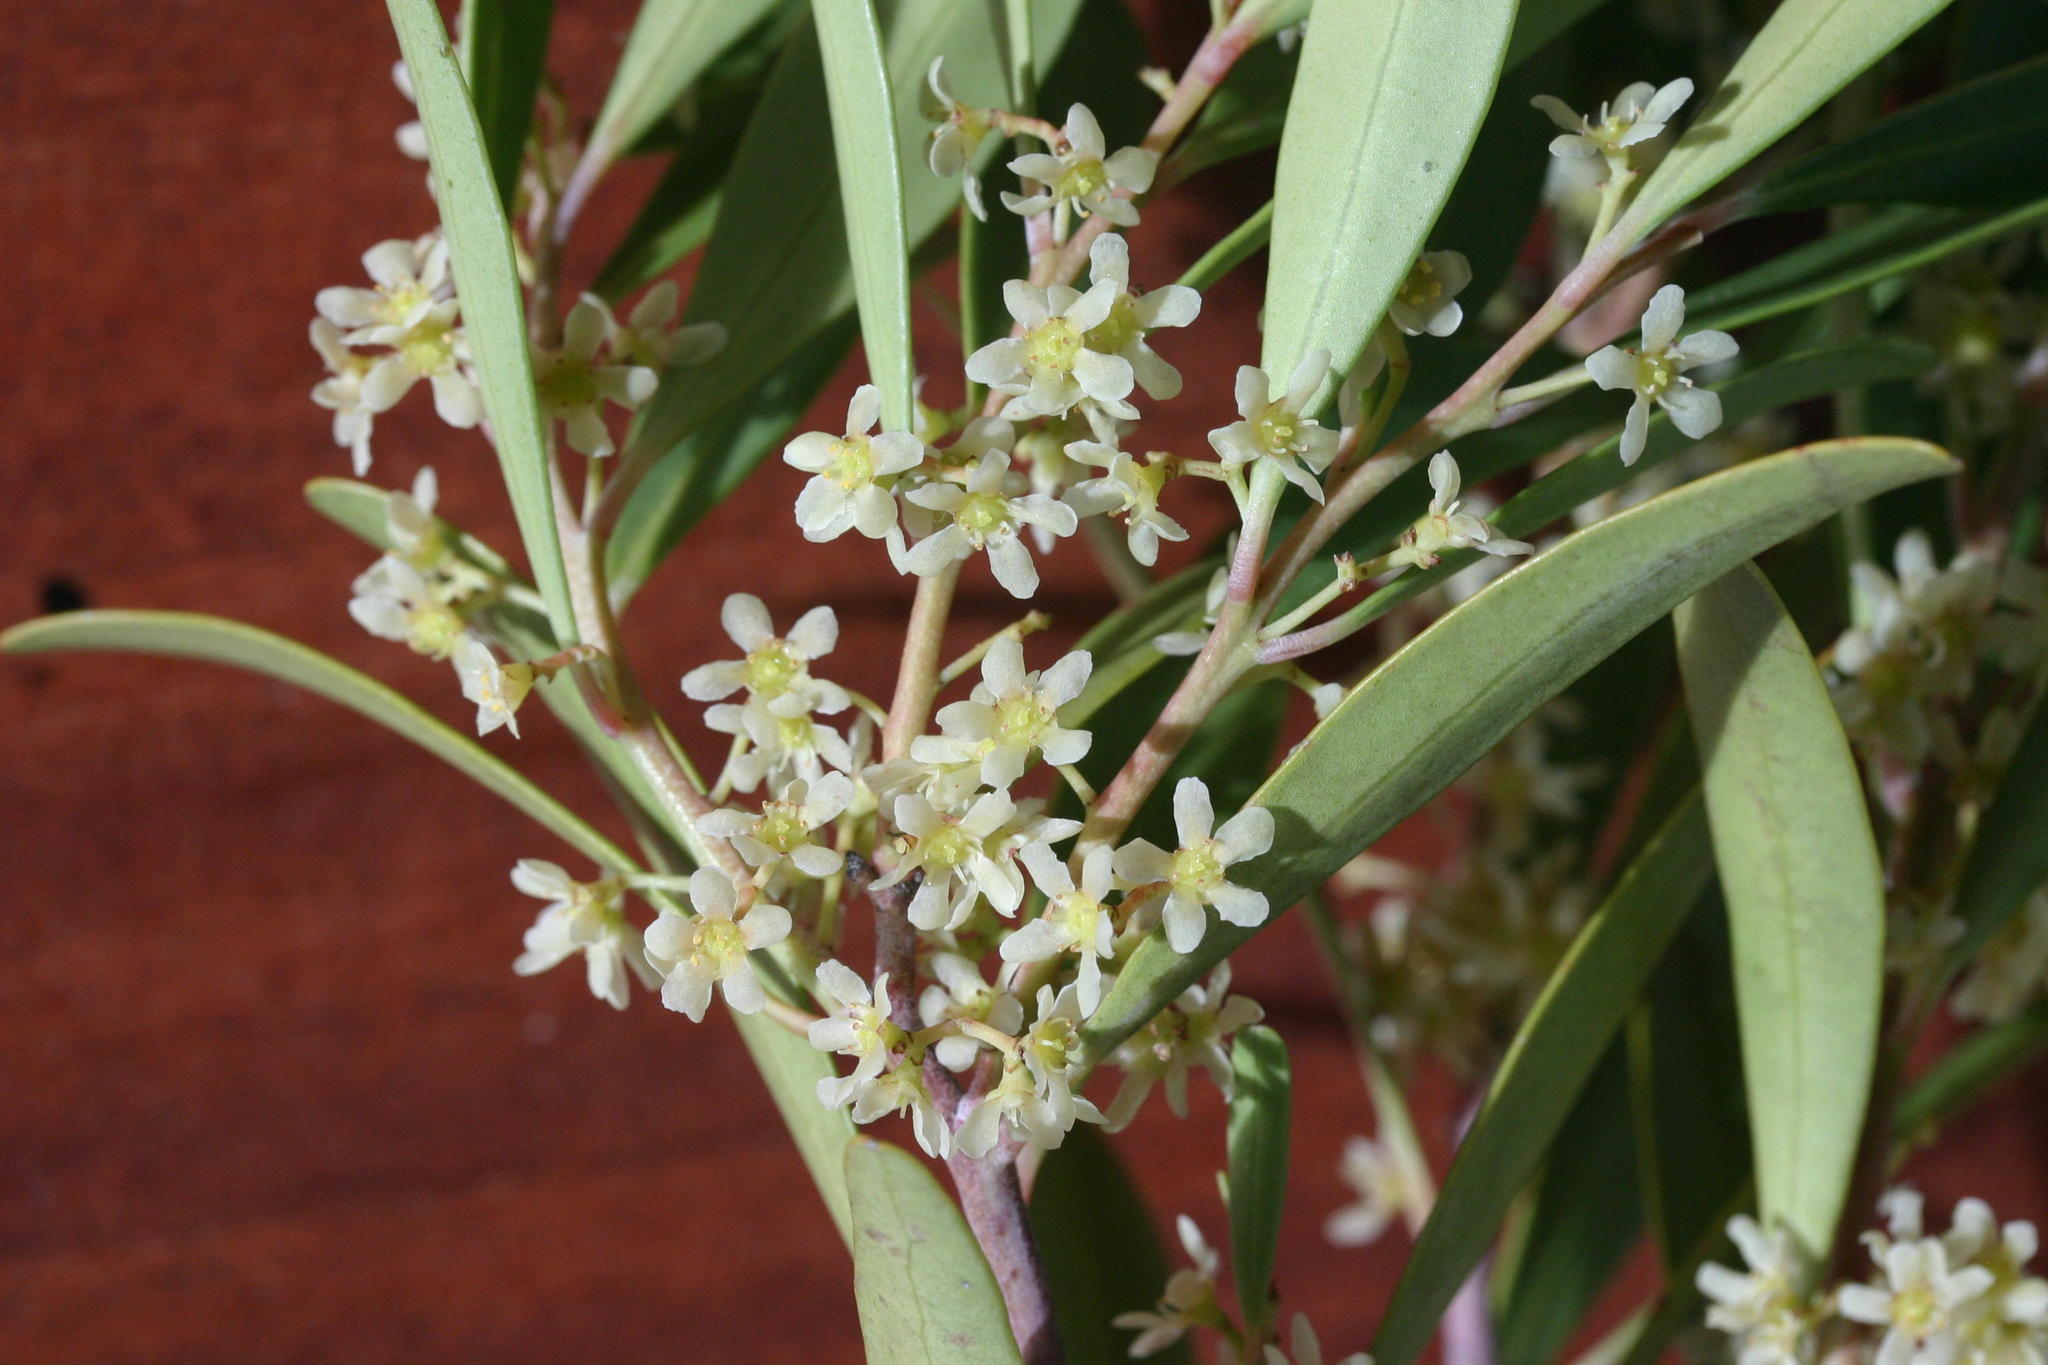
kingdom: Plantae
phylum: Tracheophyta
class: Magnoliopsida
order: Celastrales
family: Celastraceae
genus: Gymnosporia
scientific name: Gymnosporia laurina
